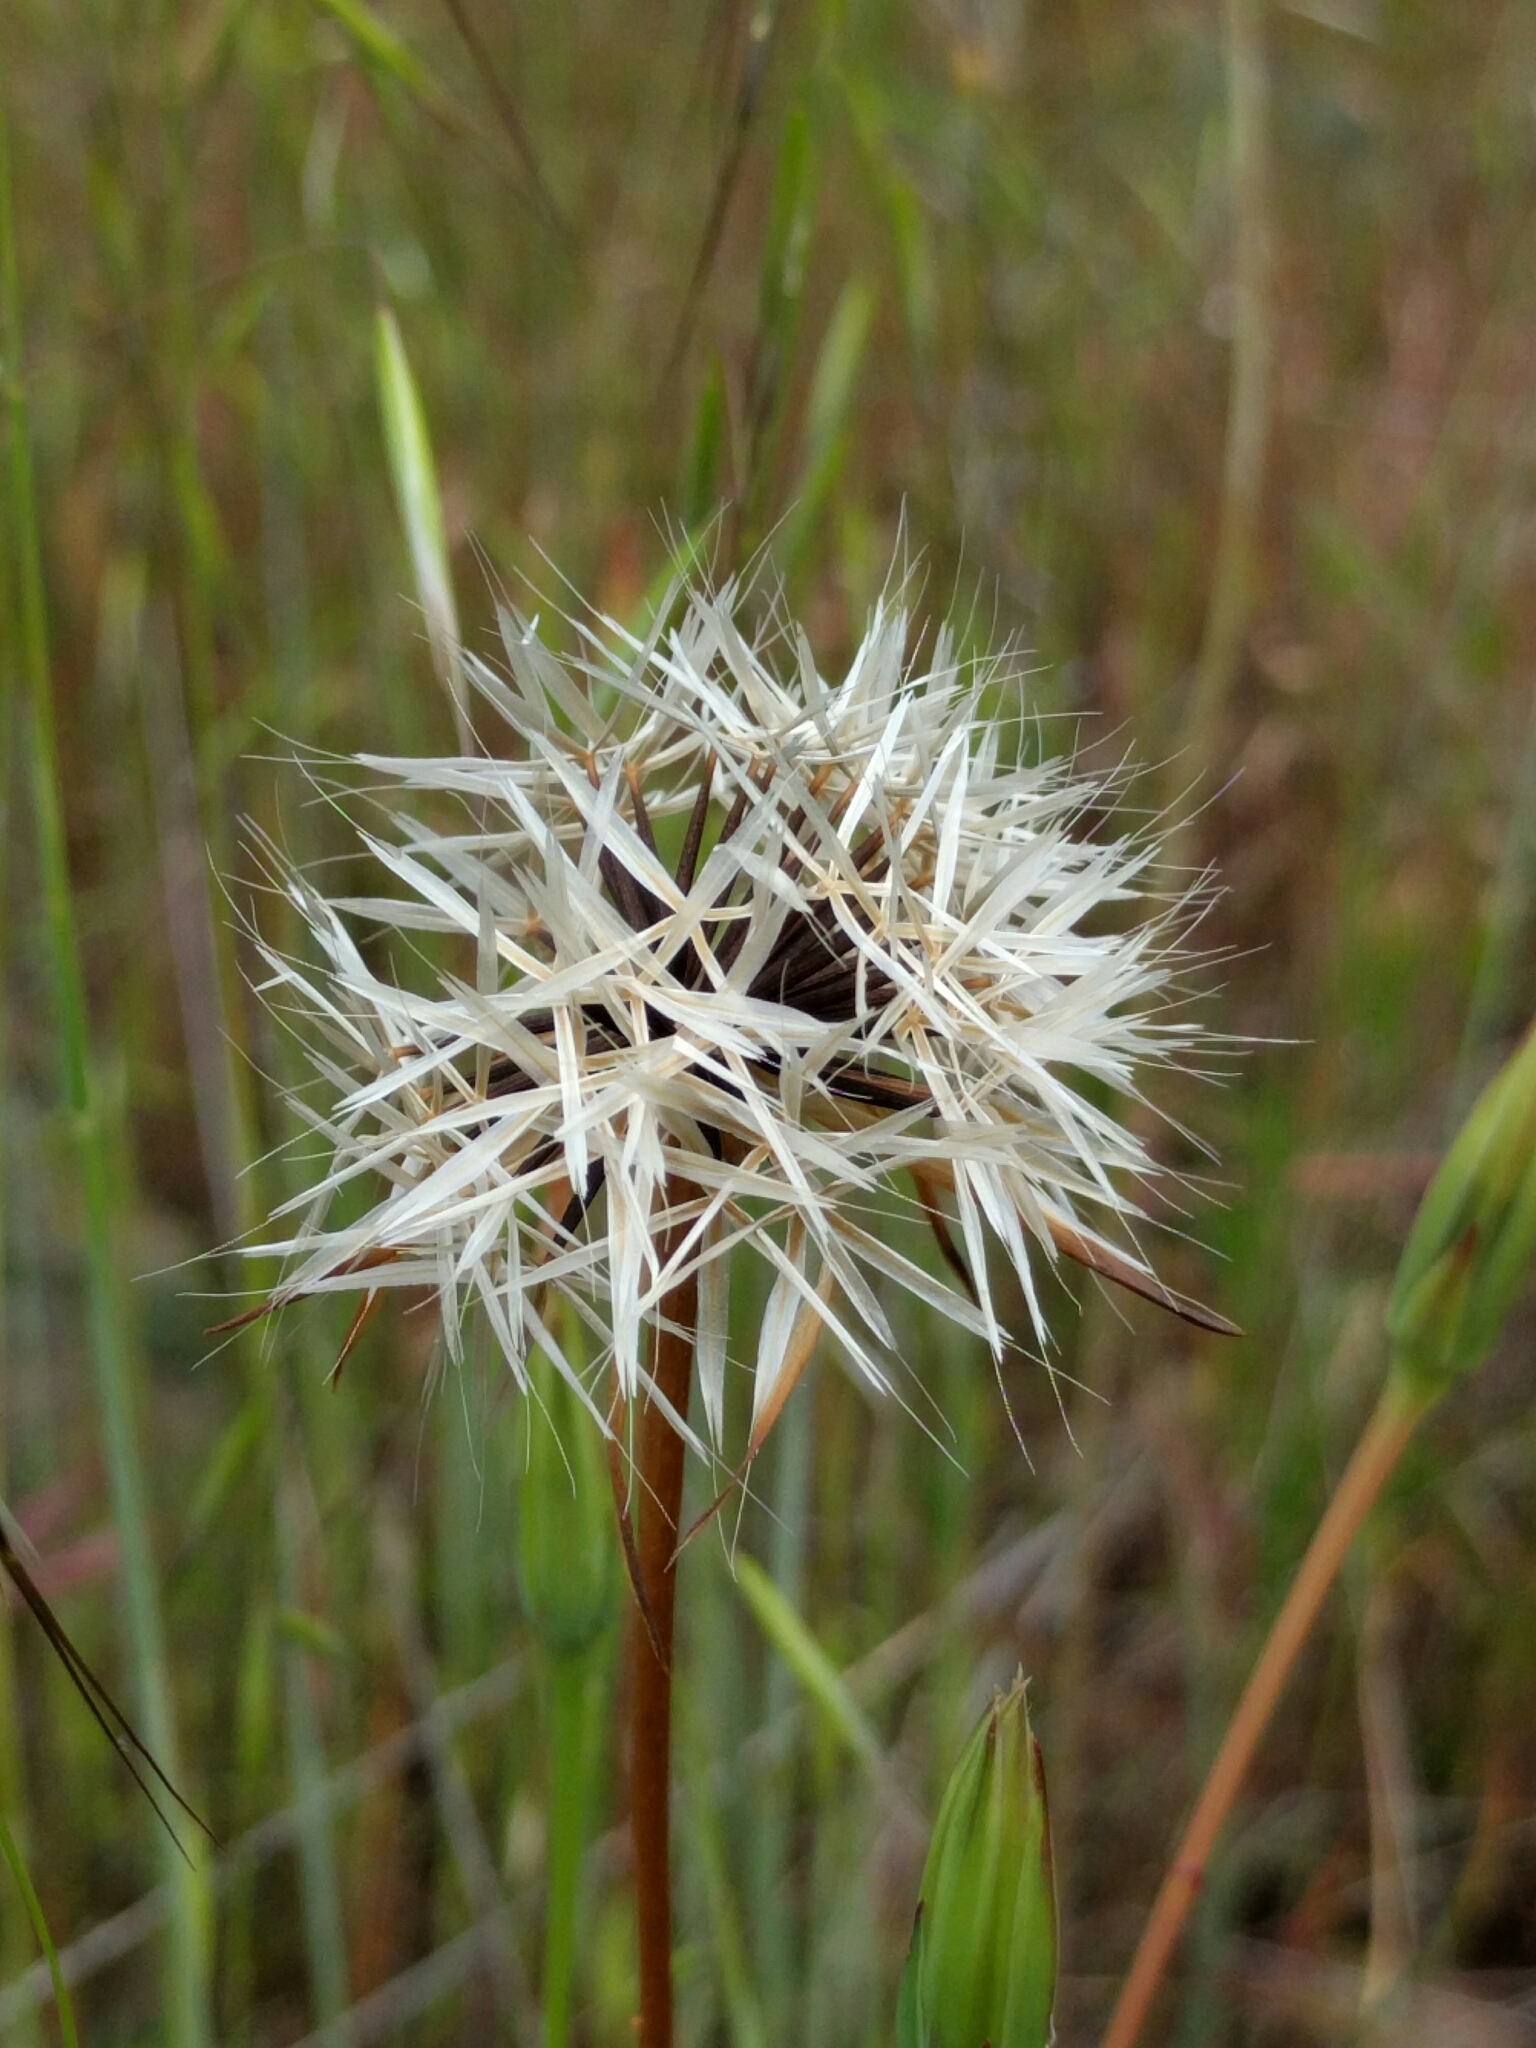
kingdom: Plantae
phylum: Tracheophyta
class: Magnoliopsida
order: Asterales
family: Asteraceae
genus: Microseris
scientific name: Microseris lindleyi
